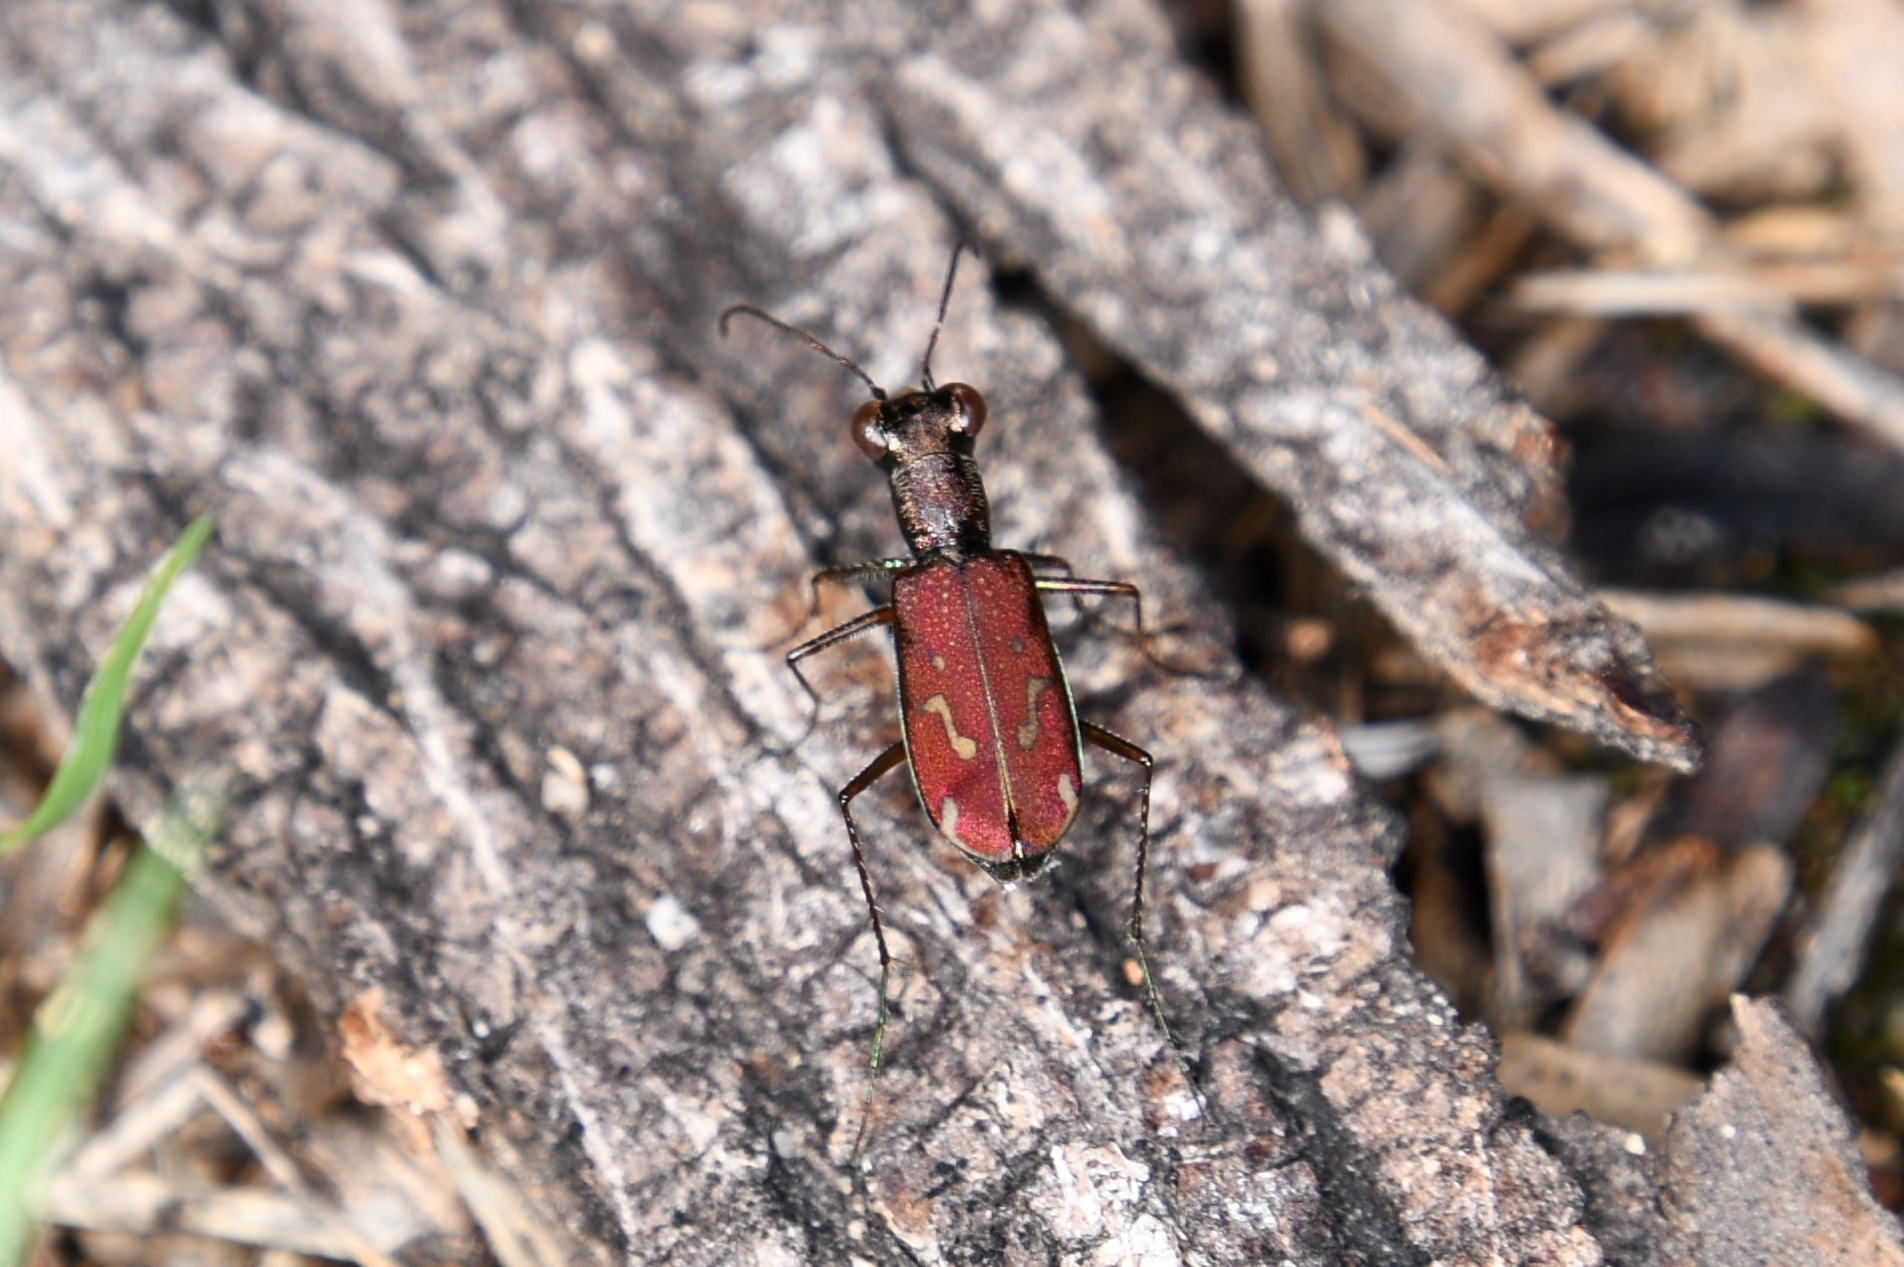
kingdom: Animalia
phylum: Arthropoda
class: Insecta
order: Coleoptera
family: Carabidae
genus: Brasiella
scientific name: Brasiella wickhami
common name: Sonoran tiger beetle
